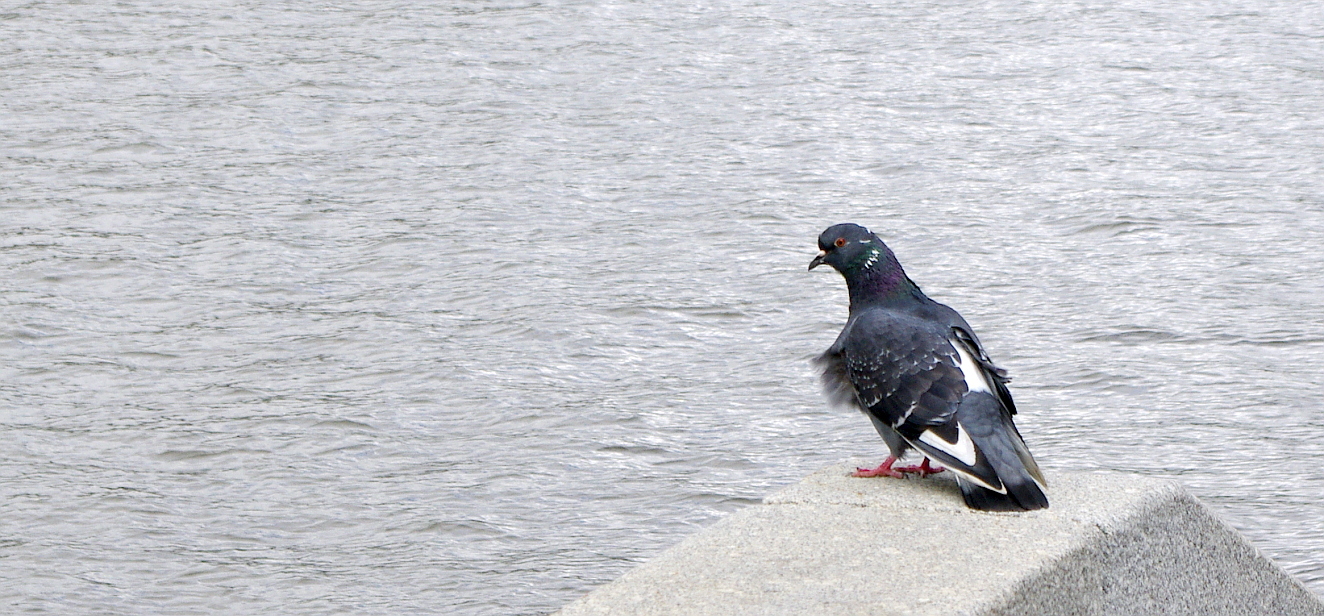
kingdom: Animalia
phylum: Chordata
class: Aves
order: Columbiformes
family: Columbidae
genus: Columba
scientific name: Columba livia
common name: Rock pigeon
